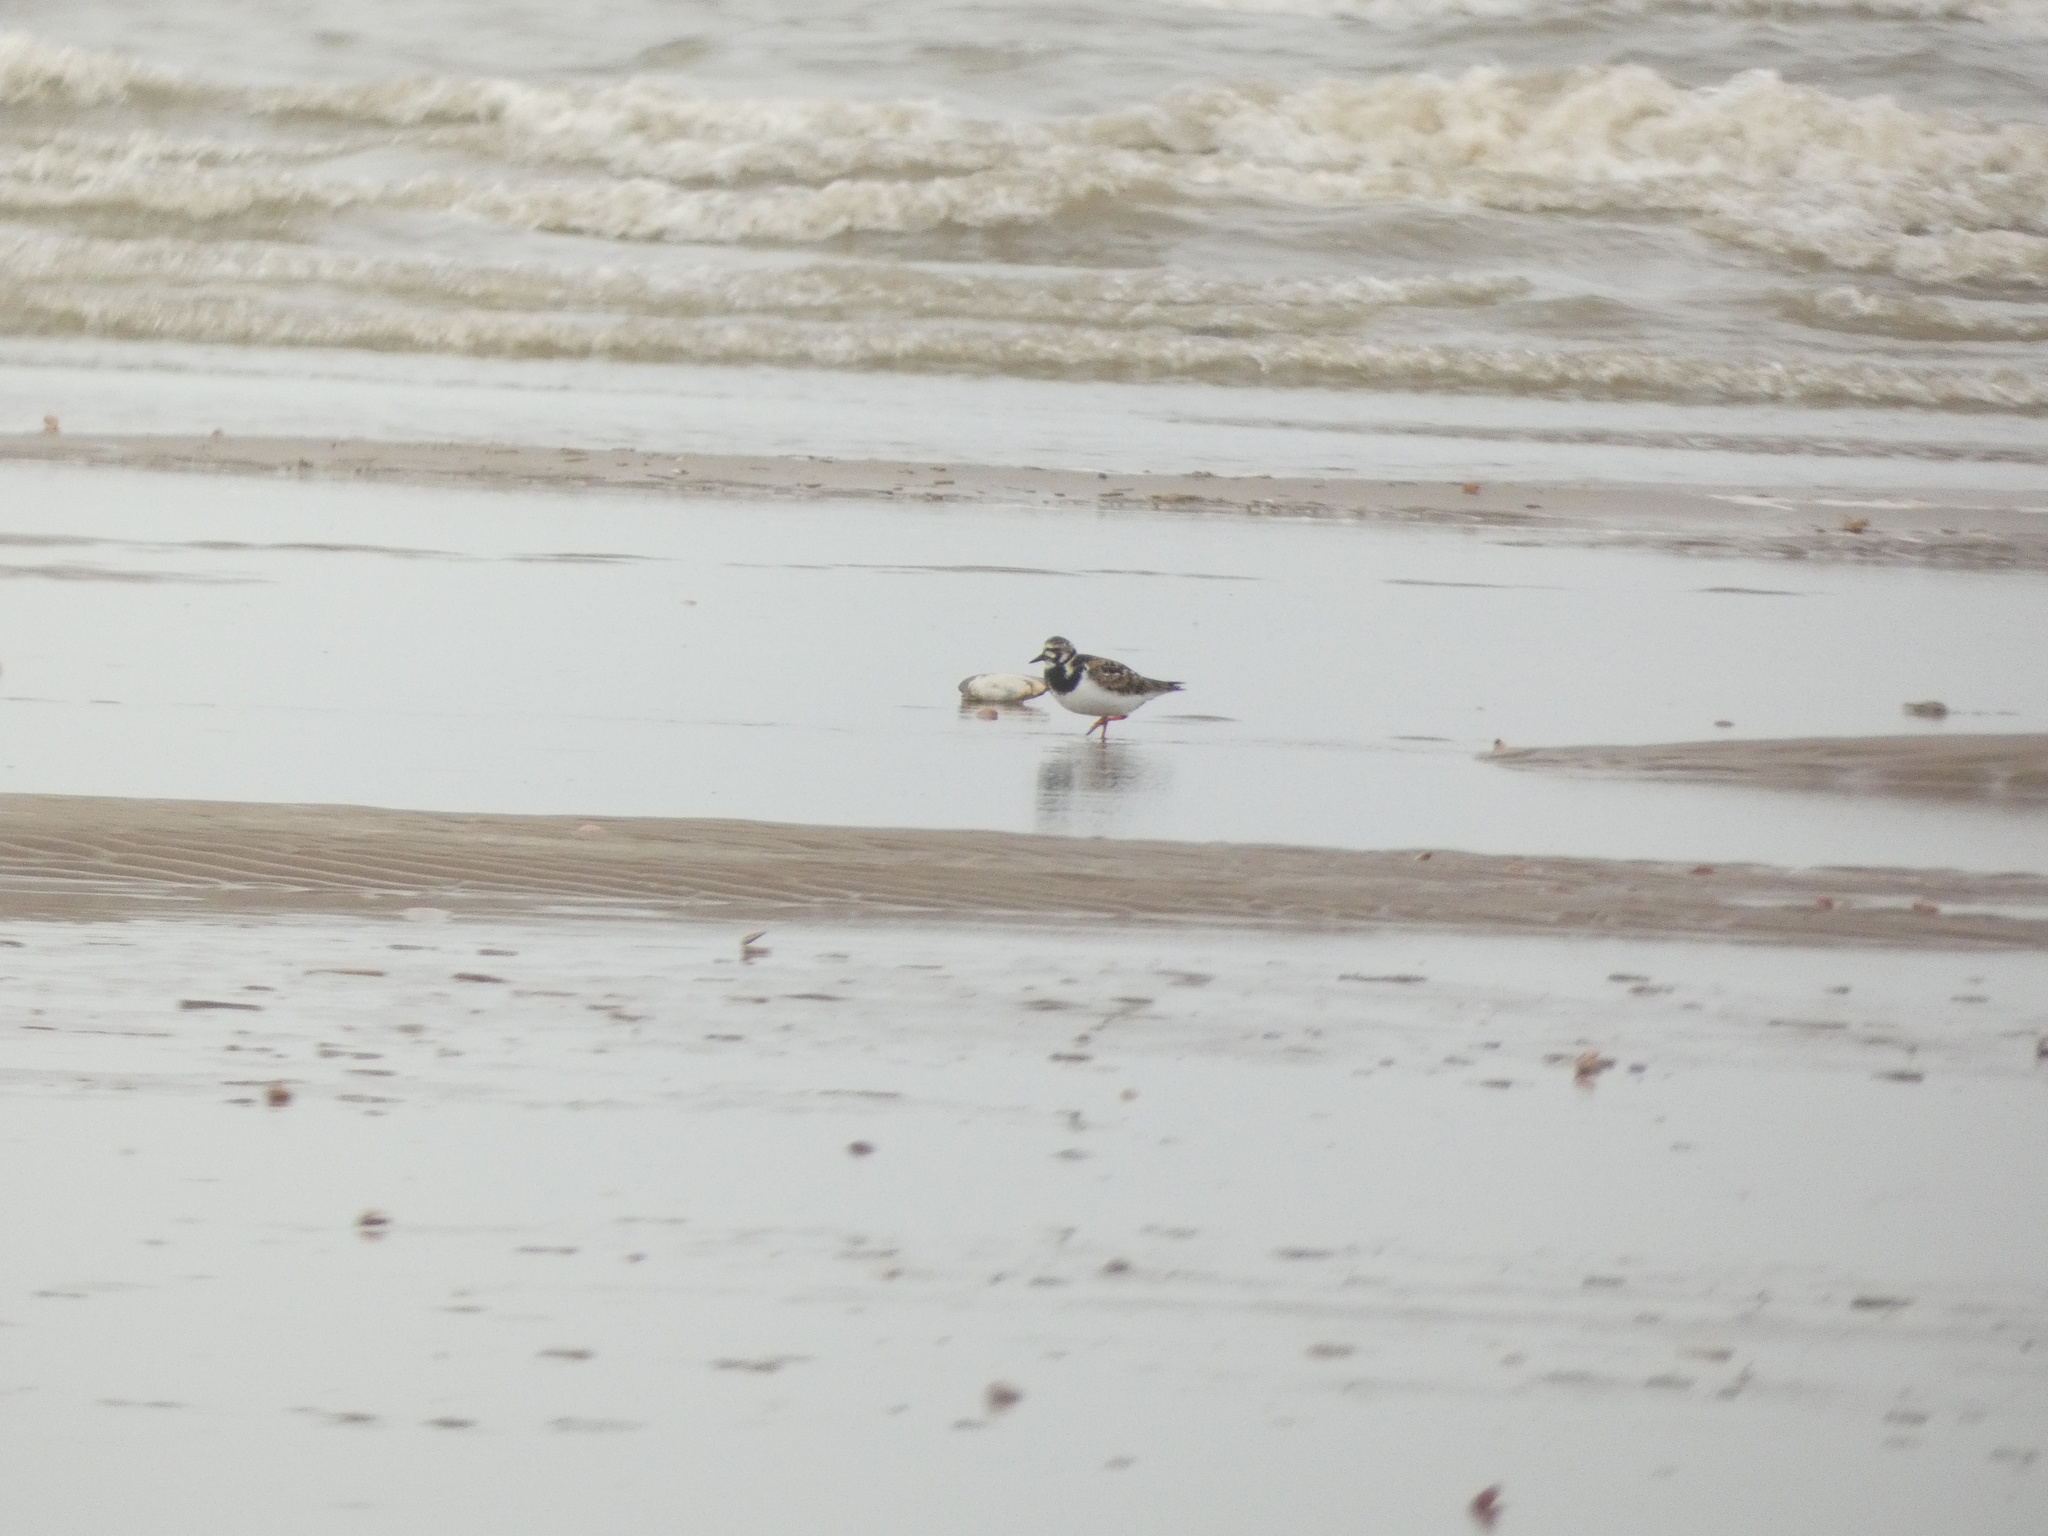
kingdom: Animalia
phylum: Chordata
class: Aves
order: Charadriiformes
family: Scolopacidae
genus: Arenaria
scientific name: Arenaria interpres
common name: Ruddy turnstone
